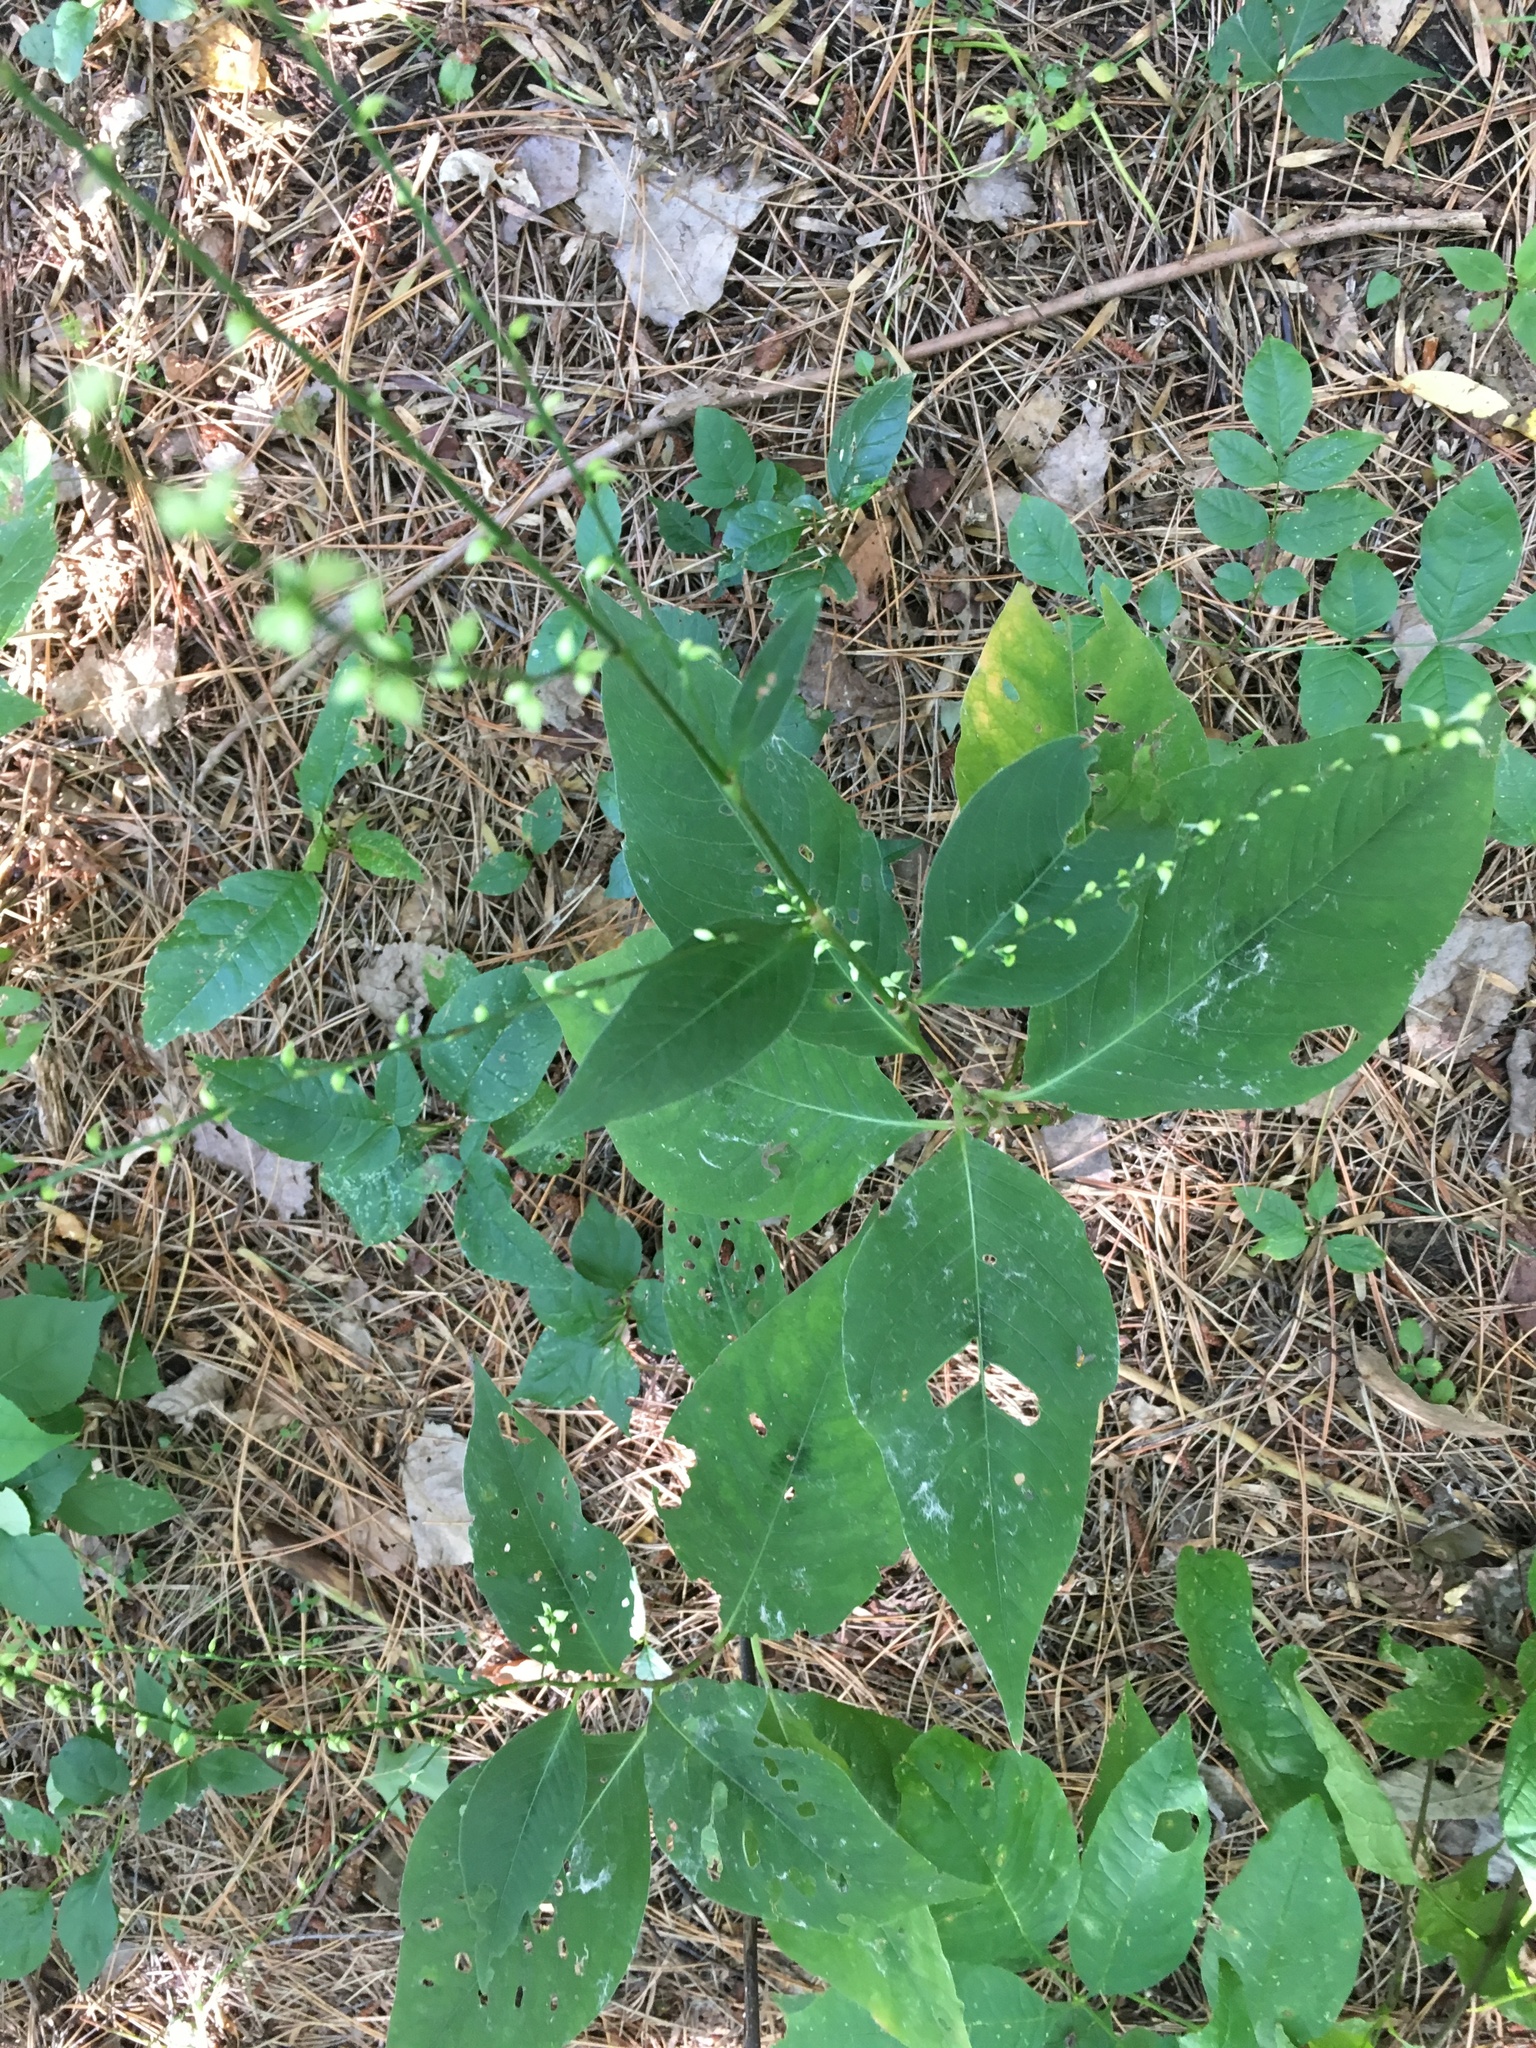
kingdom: Plantae
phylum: Tracheophyta
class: Magnoliopsida
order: Caryophyllales
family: Polygonaceae
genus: Persicaria
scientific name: Persicaria virginiana
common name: Jumpseed
